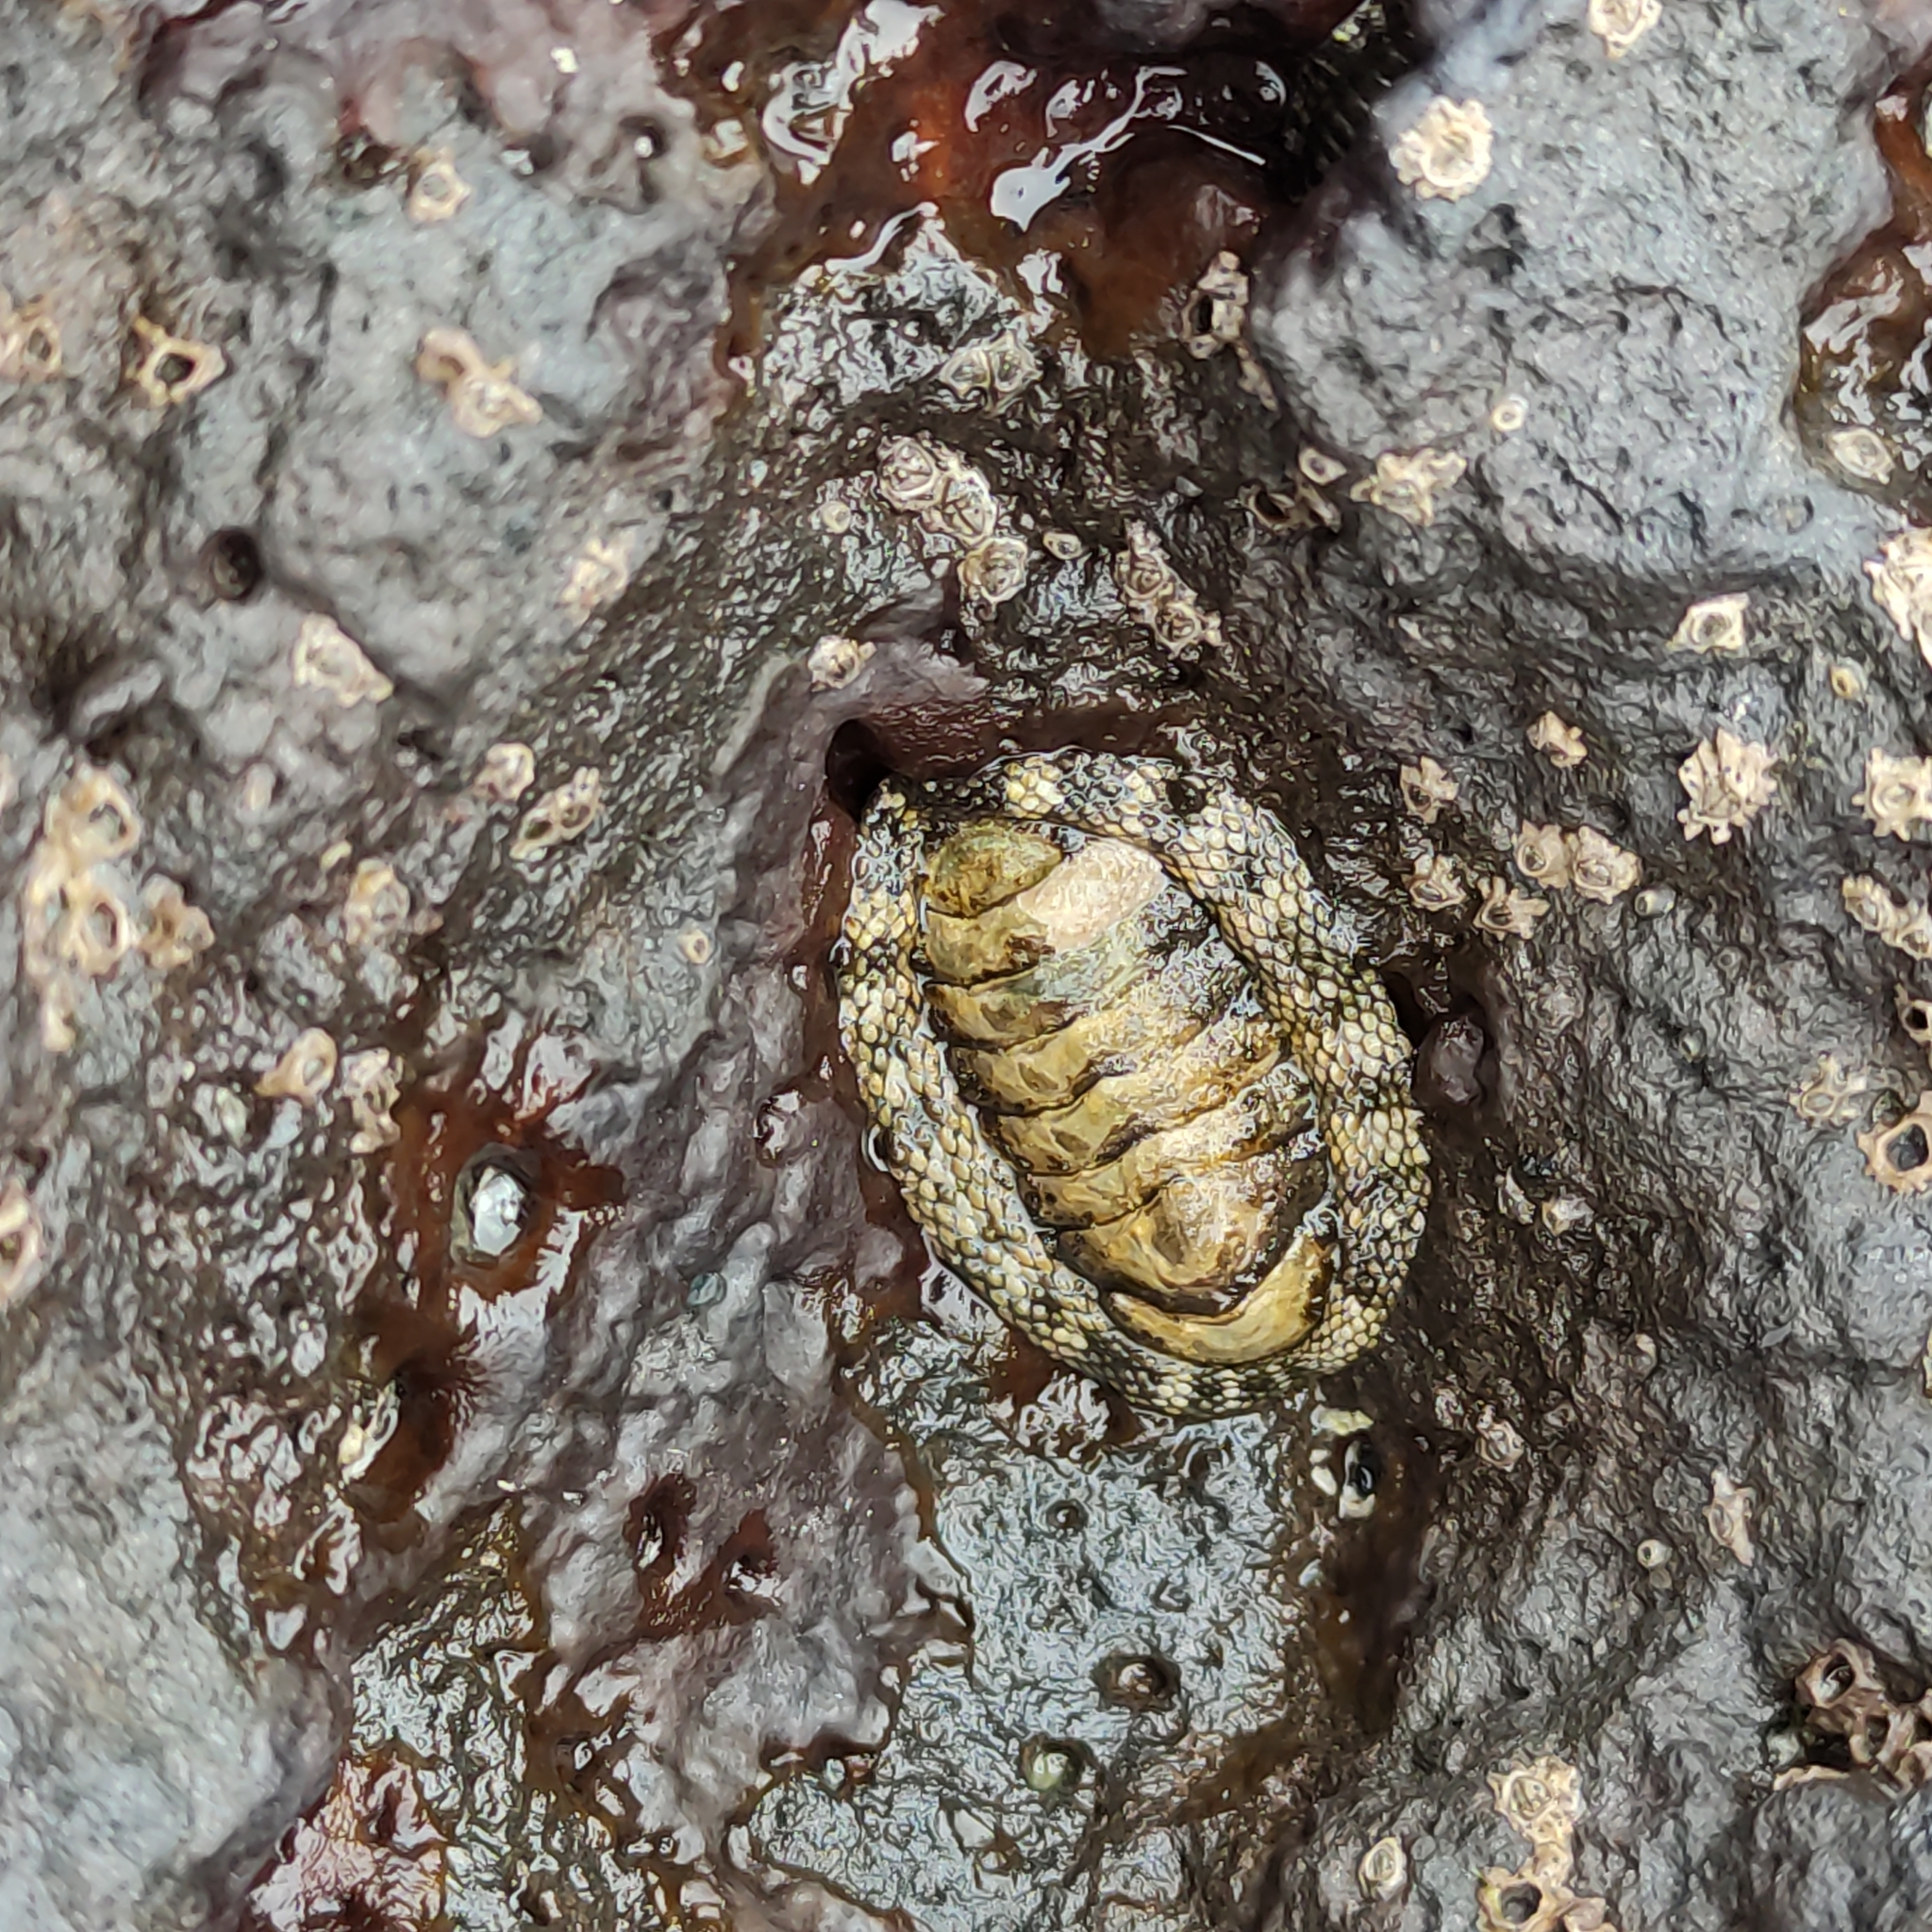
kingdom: Animalia
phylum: Mollusca
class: Polyplacophora
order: Chitonida
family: Chitonidae
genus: Sypharochiton
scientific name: Sypharochiton pelliserpentis
